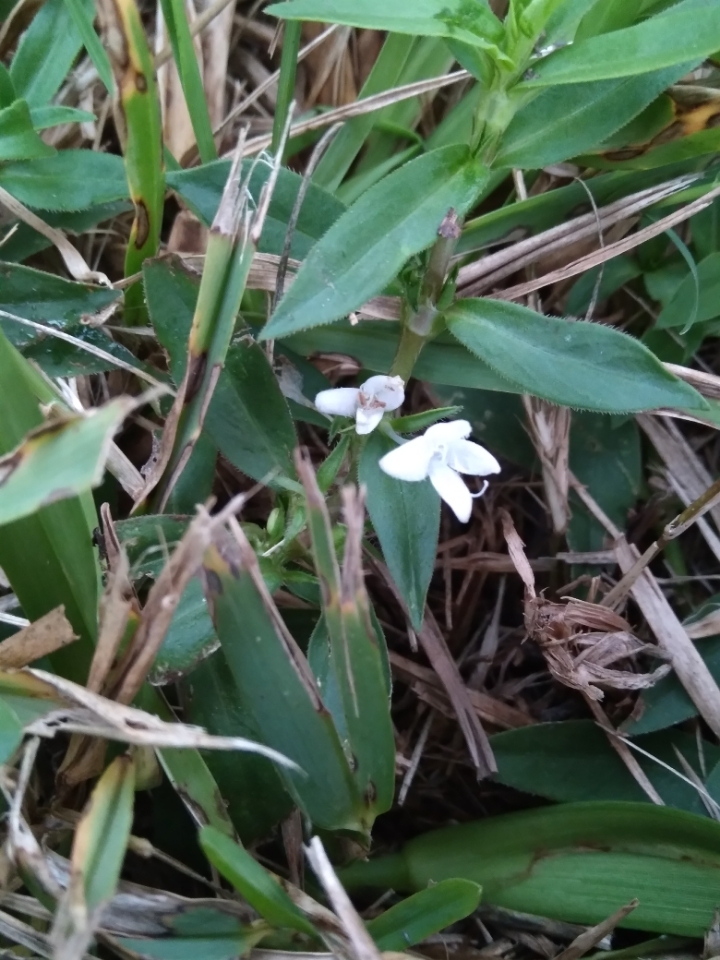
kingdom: Plantae
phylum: Tracheophyta
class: Magnoliopsida
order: Gentianales
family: Rubiaceae
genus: Diodia
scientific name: Diodia virginiana
